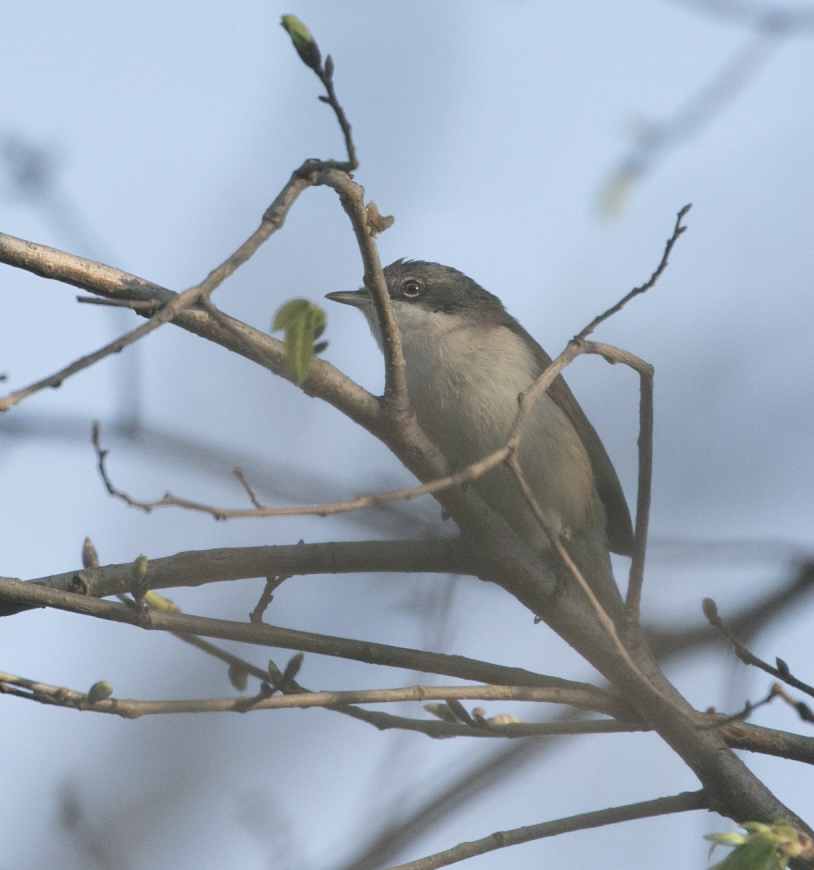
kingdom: Animalia
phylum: Chordata
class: Aves
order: Passeriformes
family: Sylviidae
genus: Sylvia
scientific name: Sylvia curruca
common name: Lesser whitethroat
